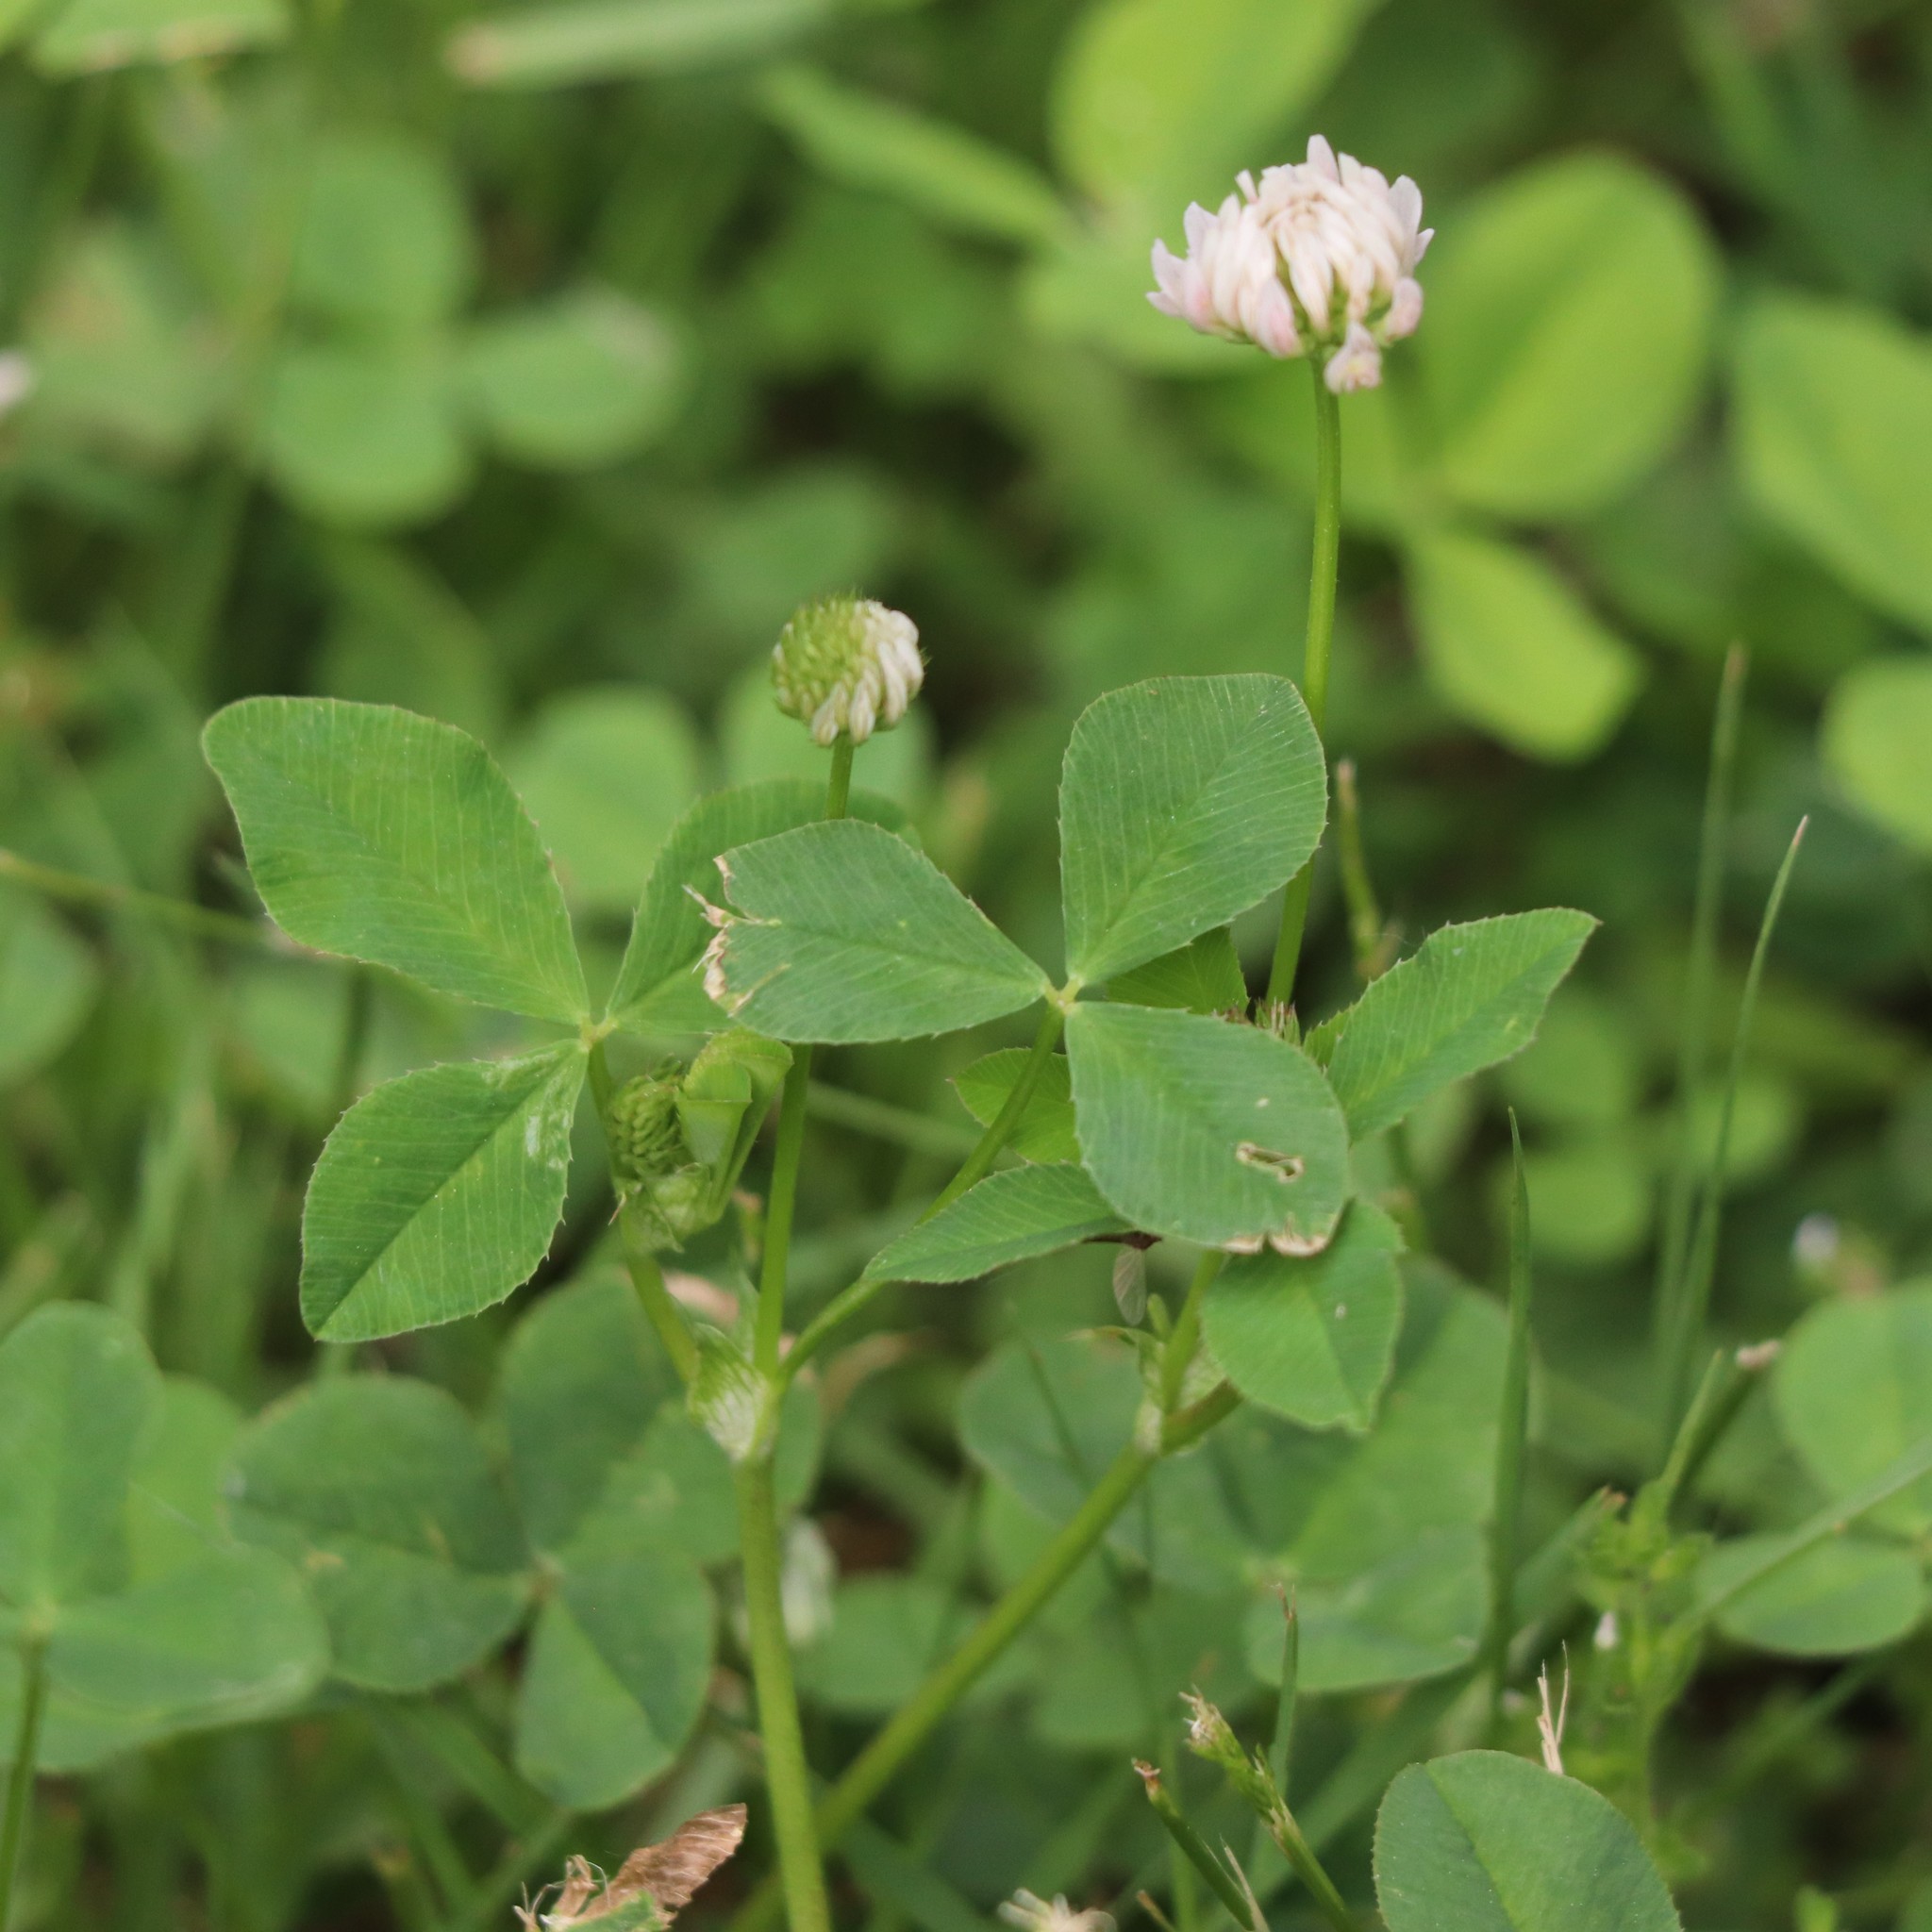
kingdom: Plantae
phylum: Tracheophyta
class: Magnoliopsida
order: Fabales
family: Fabaceae
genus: Trifolium
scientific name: Trifolium hybridum
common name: Alsike clover
